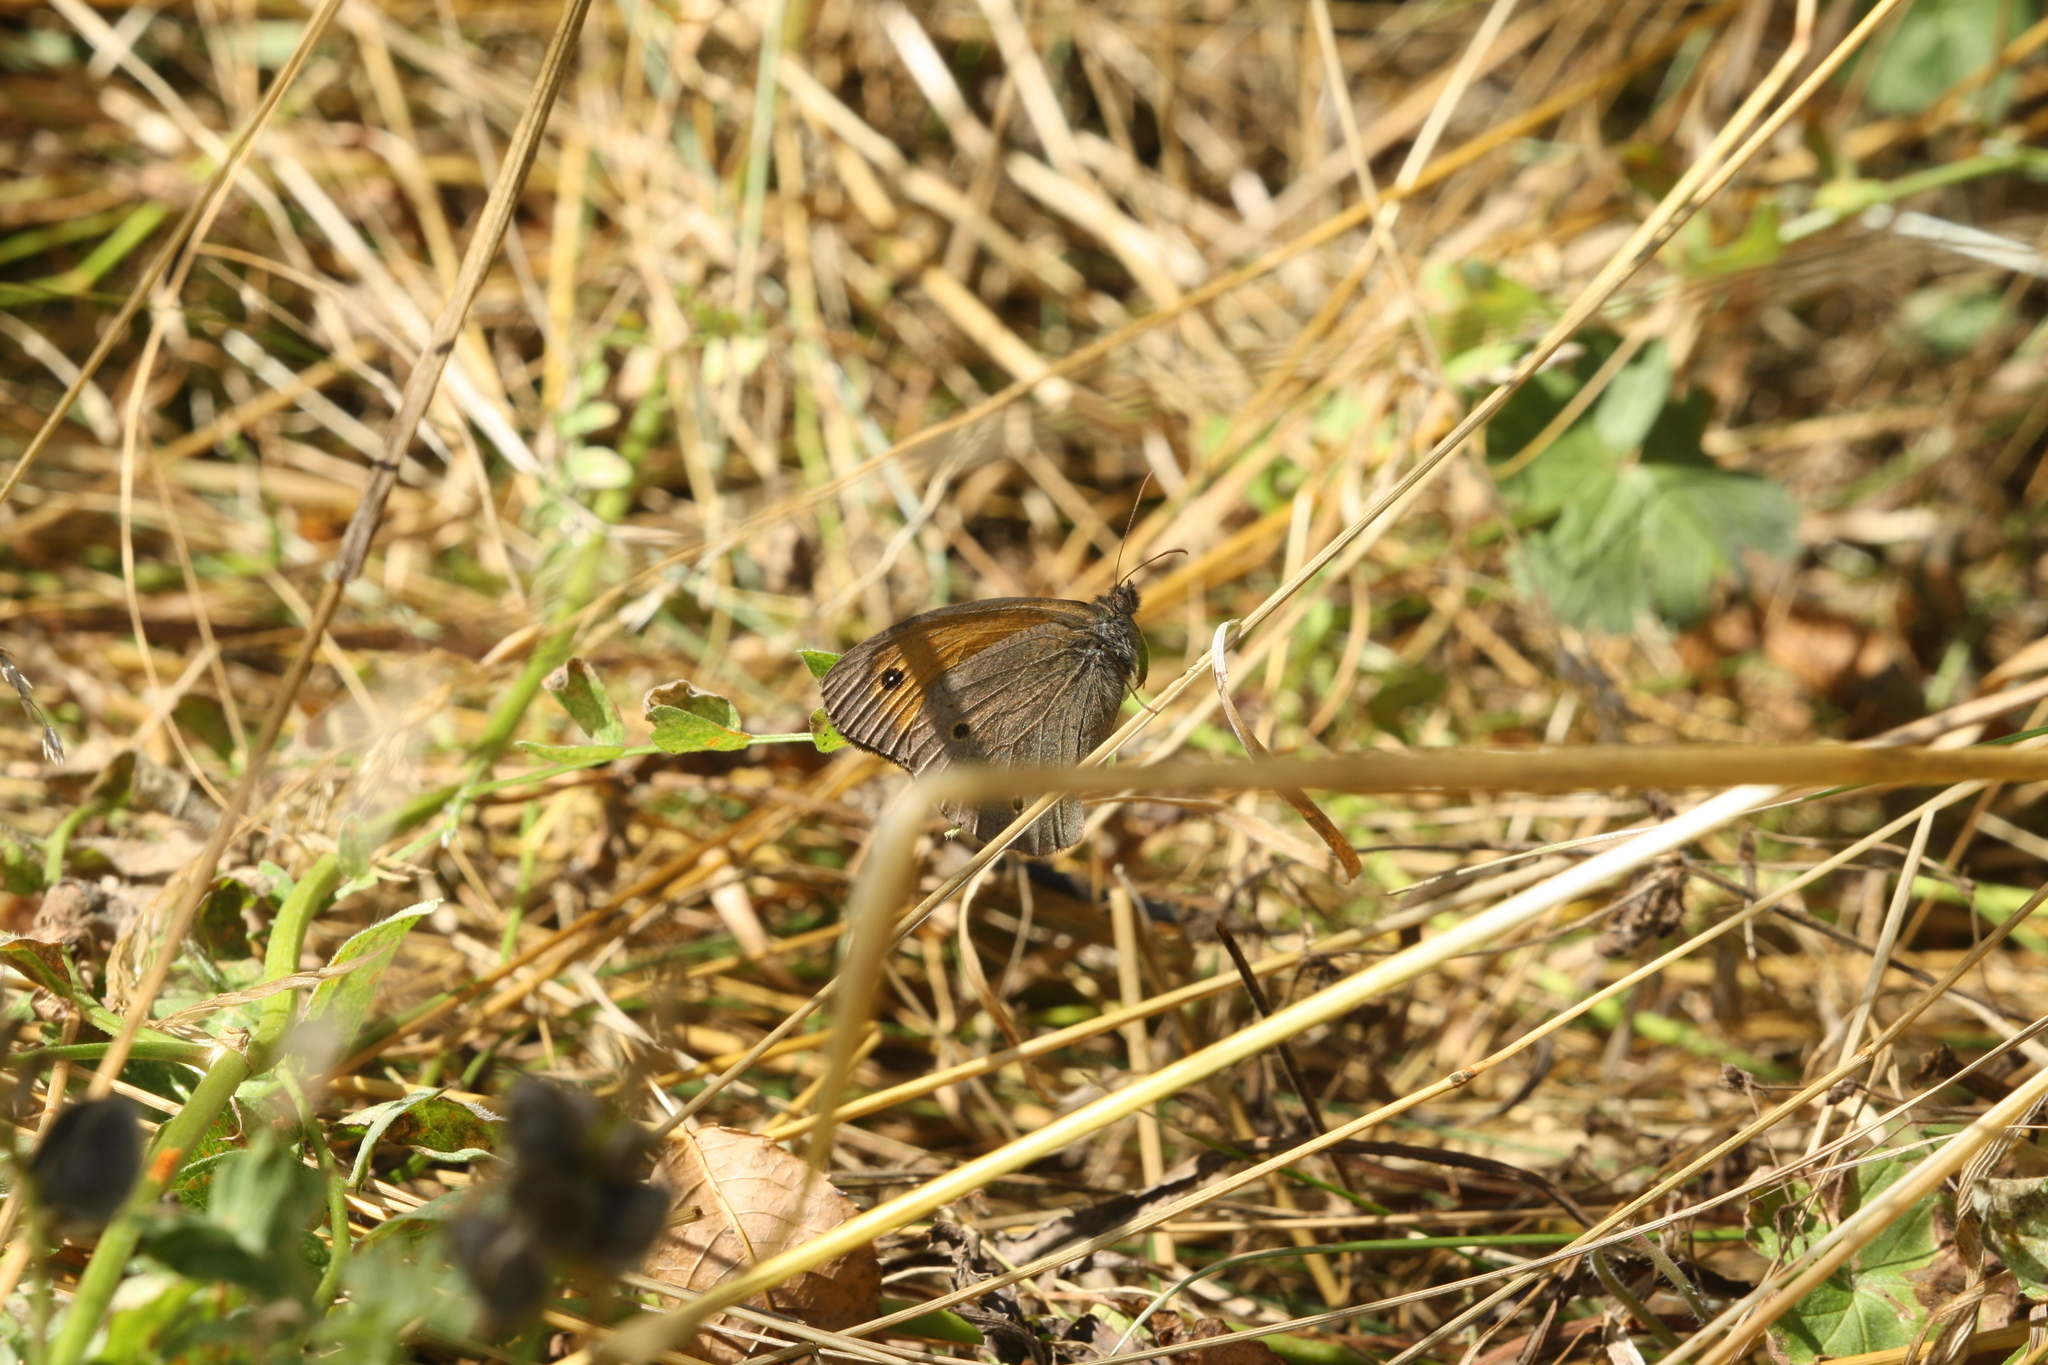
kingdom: Animalia
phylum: Arthropoda
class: Insecta
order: Lepidoptera
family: Nymphalidae
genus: Maniola
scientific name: Maniola jurtina
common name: Meadow brown
